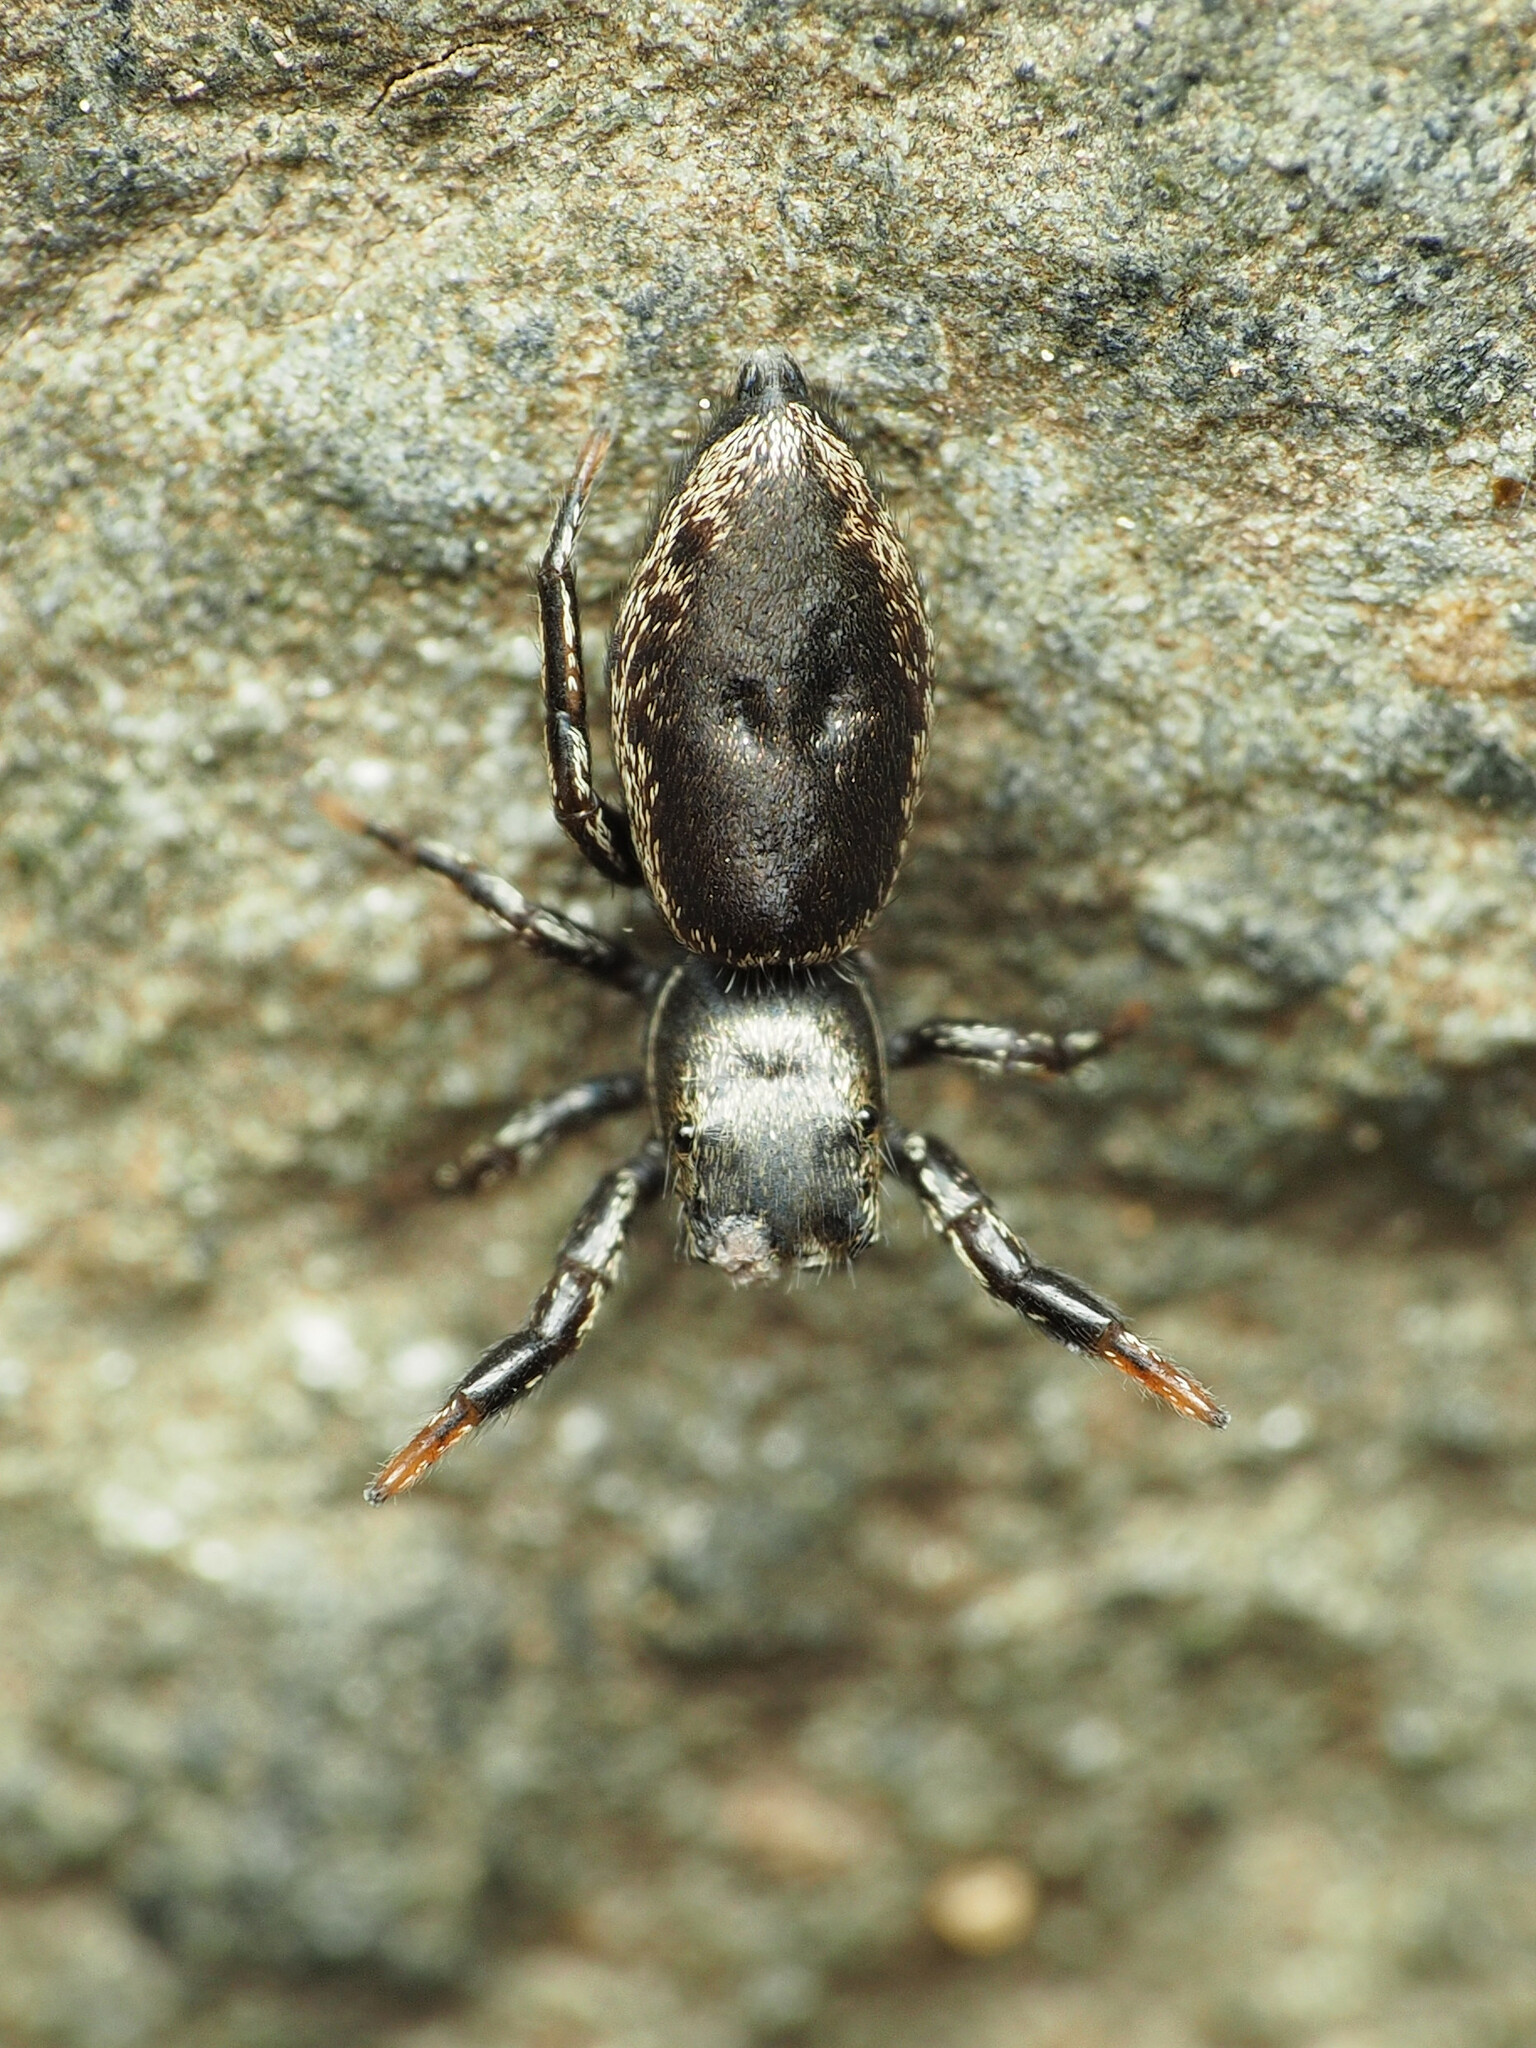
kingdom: Animalia
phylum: Arthropoda
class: Arachnida
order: Araneae
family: Salticidae
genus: Tutelina
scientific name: Tutelina harti
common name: Hart's jumping spider
